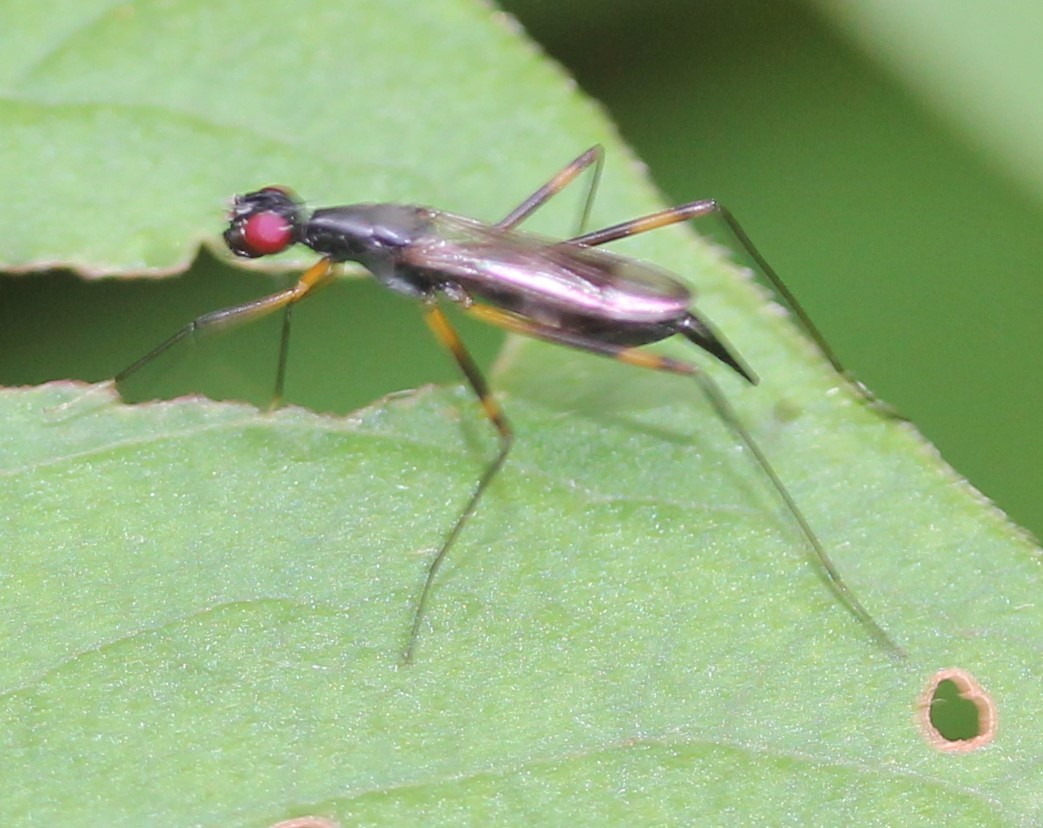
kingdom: Animalia
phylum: Arthropoda
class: Insecta
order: Diptera
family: Micropezidae
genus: Rainieria
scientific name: Rainieria antennaepes
